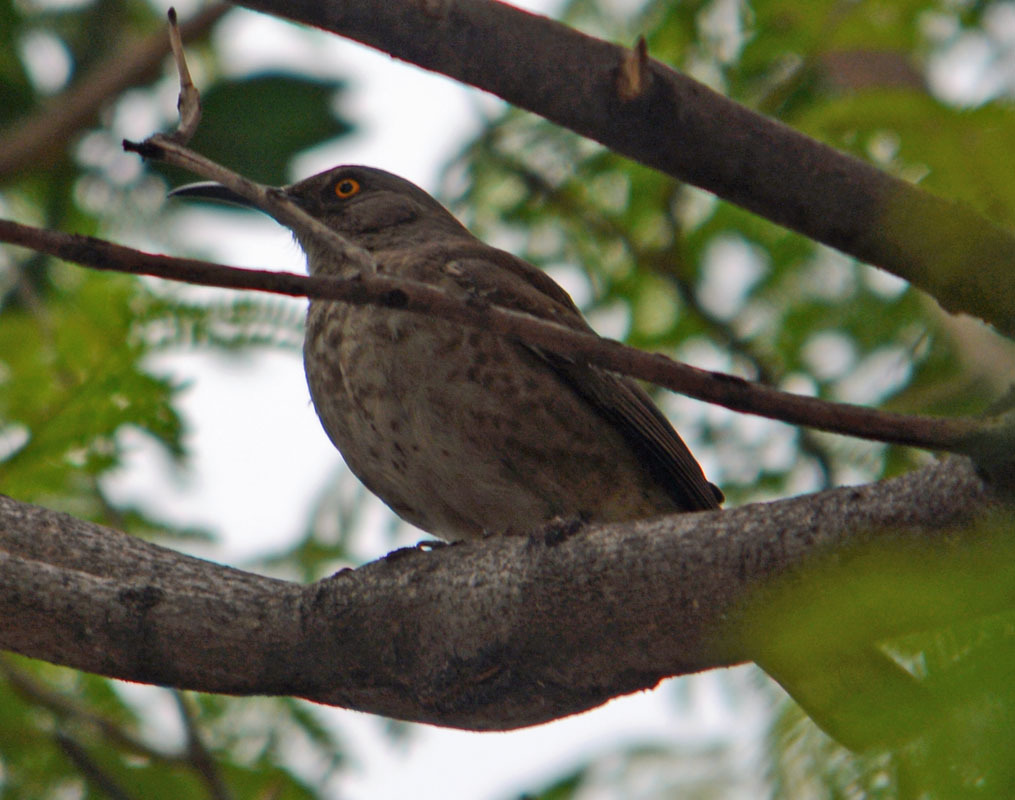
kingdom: Animalia
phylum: Chordata
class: Aves
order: Passeriformes
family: Mimidae
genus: Toxostoma
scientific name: Toxostoma curvirostre
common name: Curve-billed thrasher
